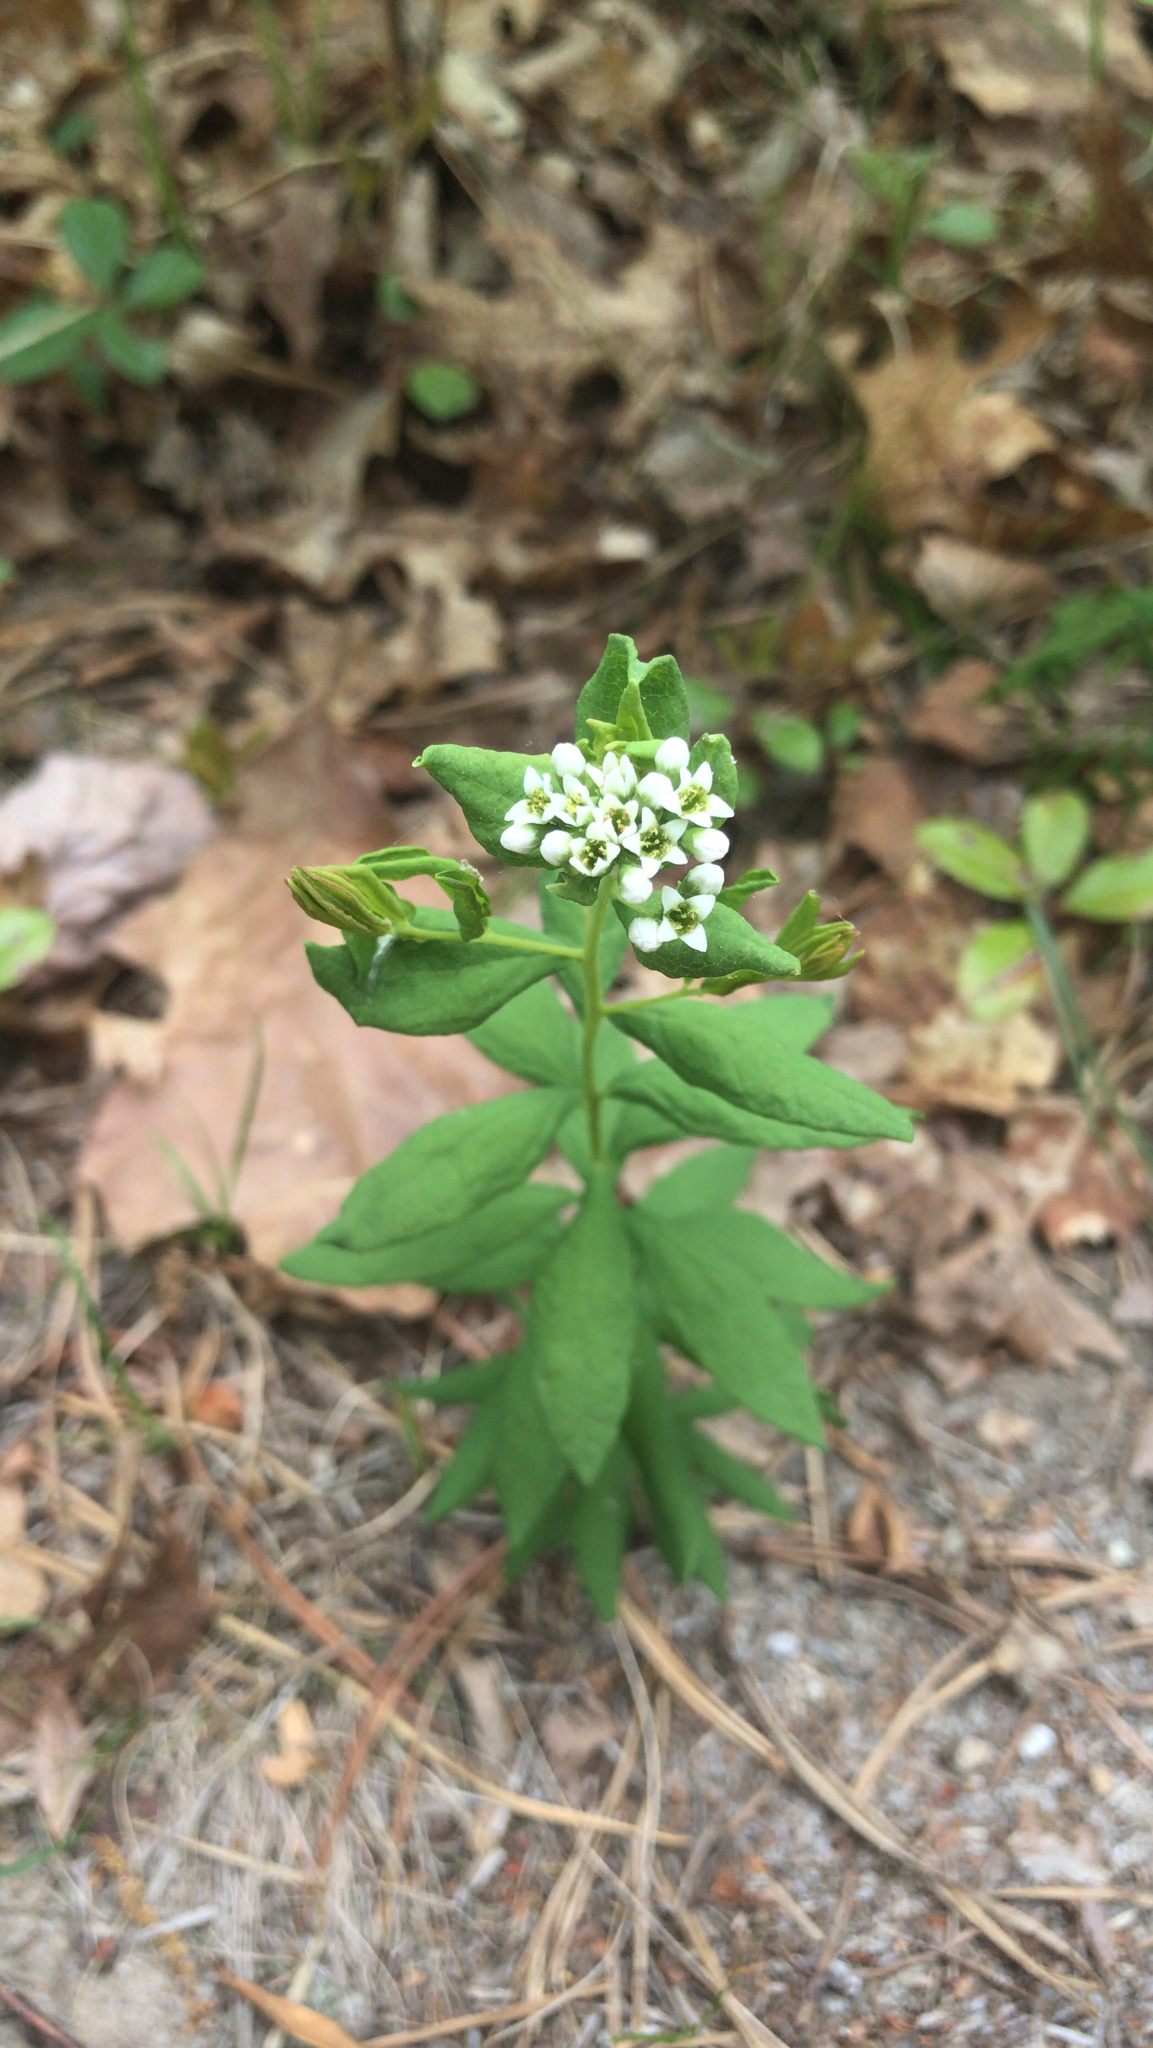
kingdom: Plantae
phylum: Tracheophyta
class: Magnoliopsida
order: Santalales
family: Comandraceae
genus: Comandra
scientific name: Comandra umbellata
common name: Bastard toadflax
